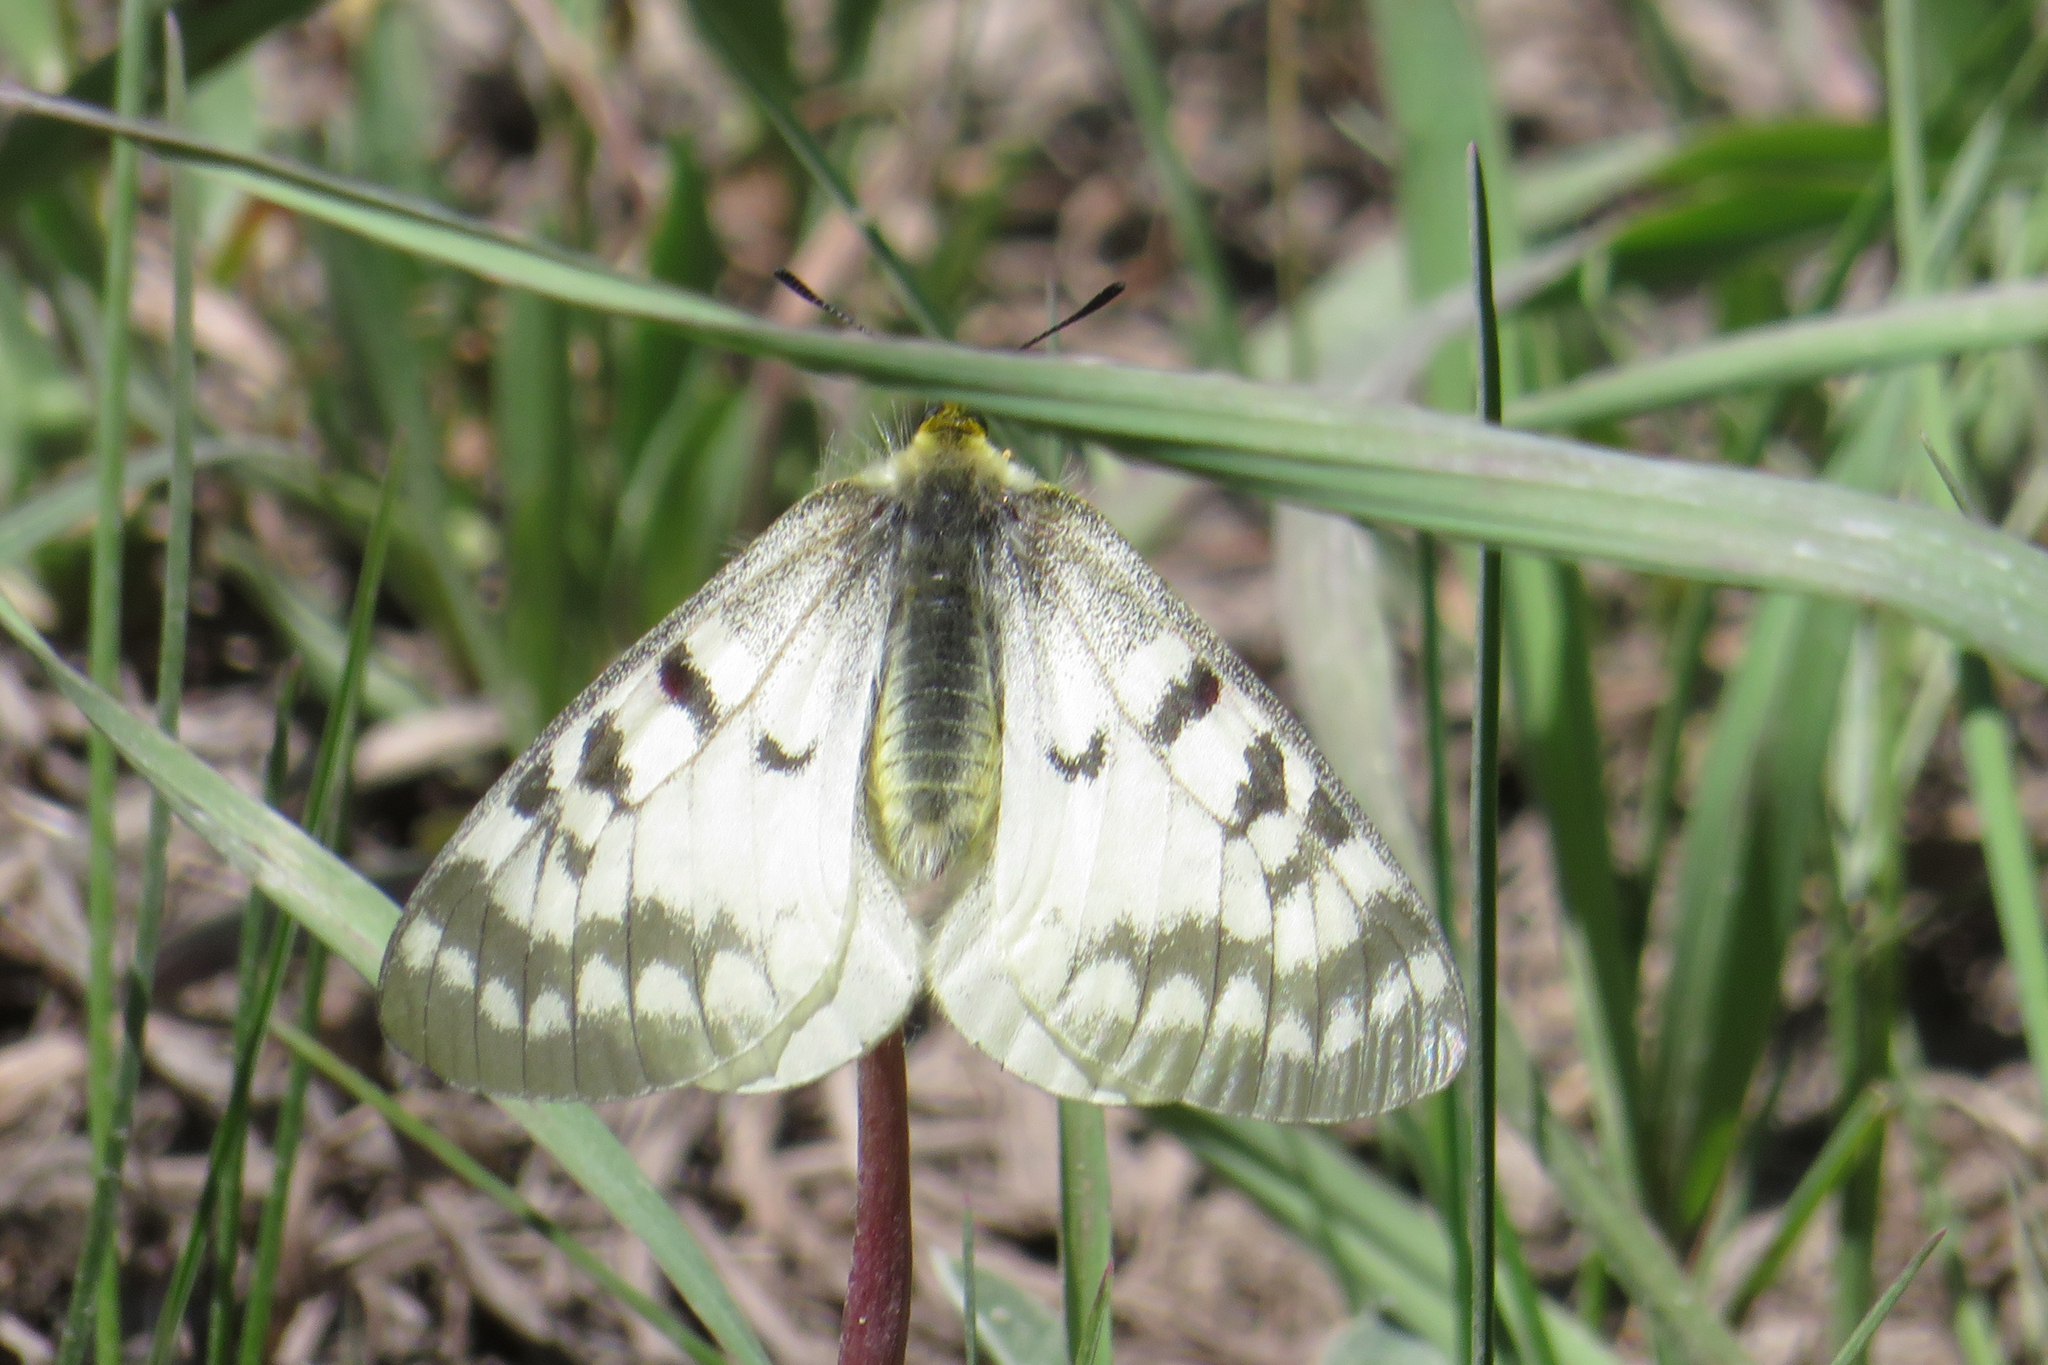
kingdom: Animalia
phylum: Arthropoda
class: Insecta
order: Lepidoptera
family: Papilionidae
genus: Parnassius
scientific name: Parnassius clodius
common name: American apollo
